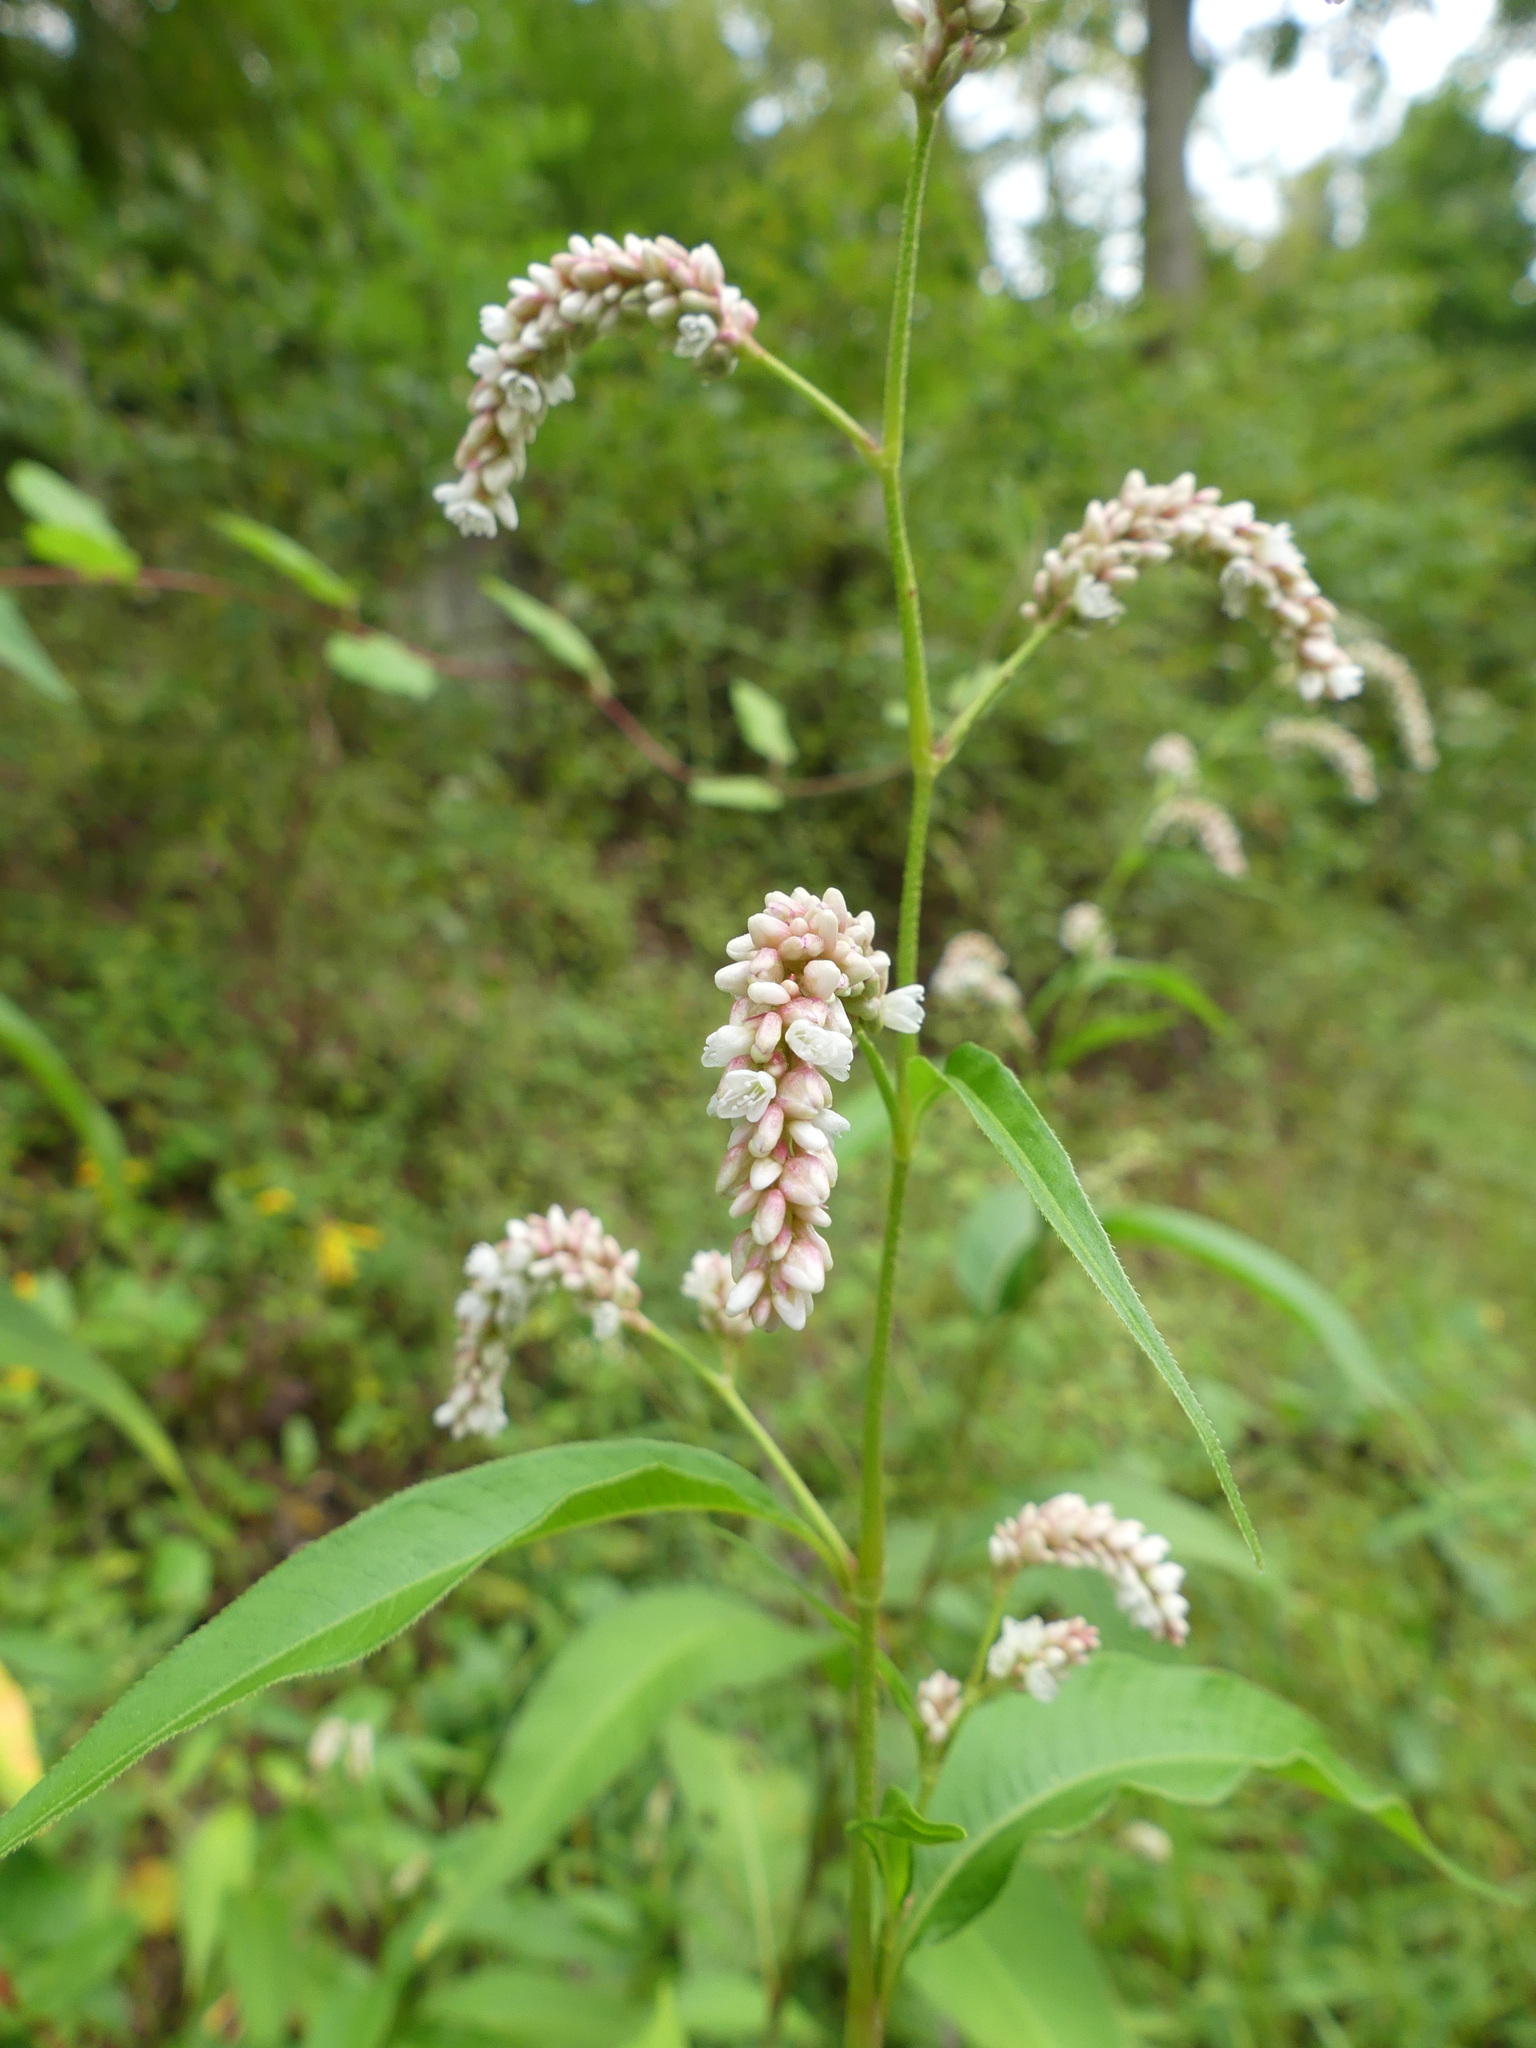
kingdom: Plantae
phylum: Tracheophyta
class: Magnoliopsida
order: Caryophyllales
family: Polygonaceae
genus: Persicaria
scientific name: Persicaria lapathifolia
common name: Curlytop knotweed
